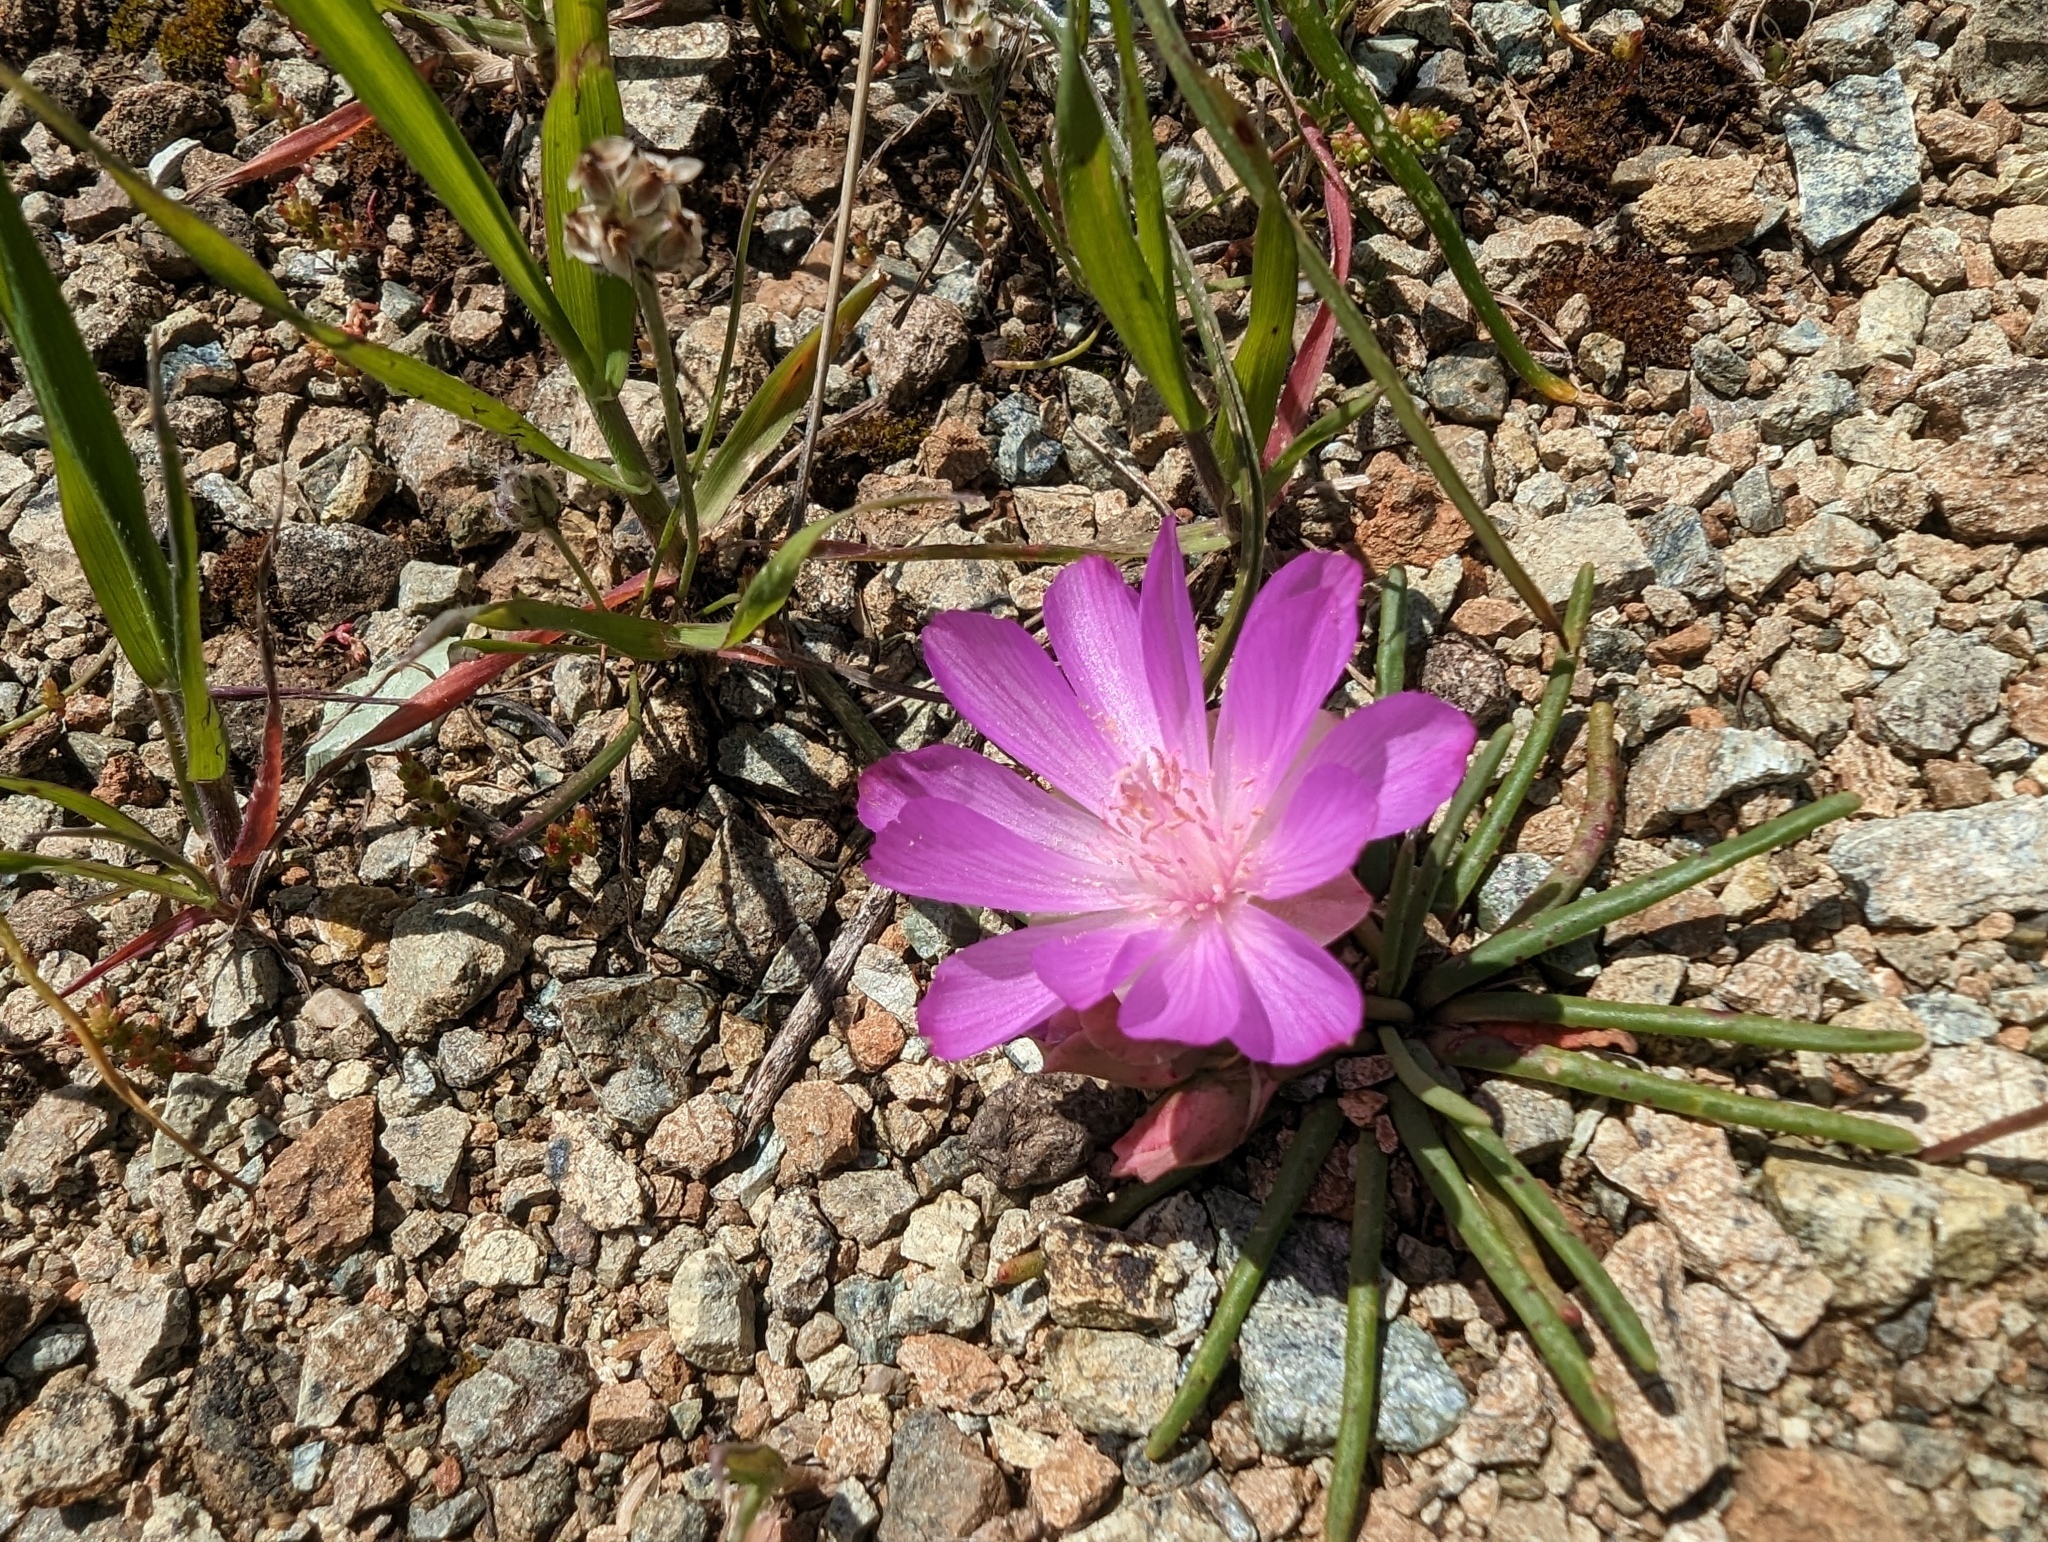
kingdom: Plantae
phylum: Tracheophyta
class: Magnoliopsida
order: Caryophyllales
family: Montiaceae
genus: Lewisia
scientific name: Lewisia rediviva
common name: Bitter-root
